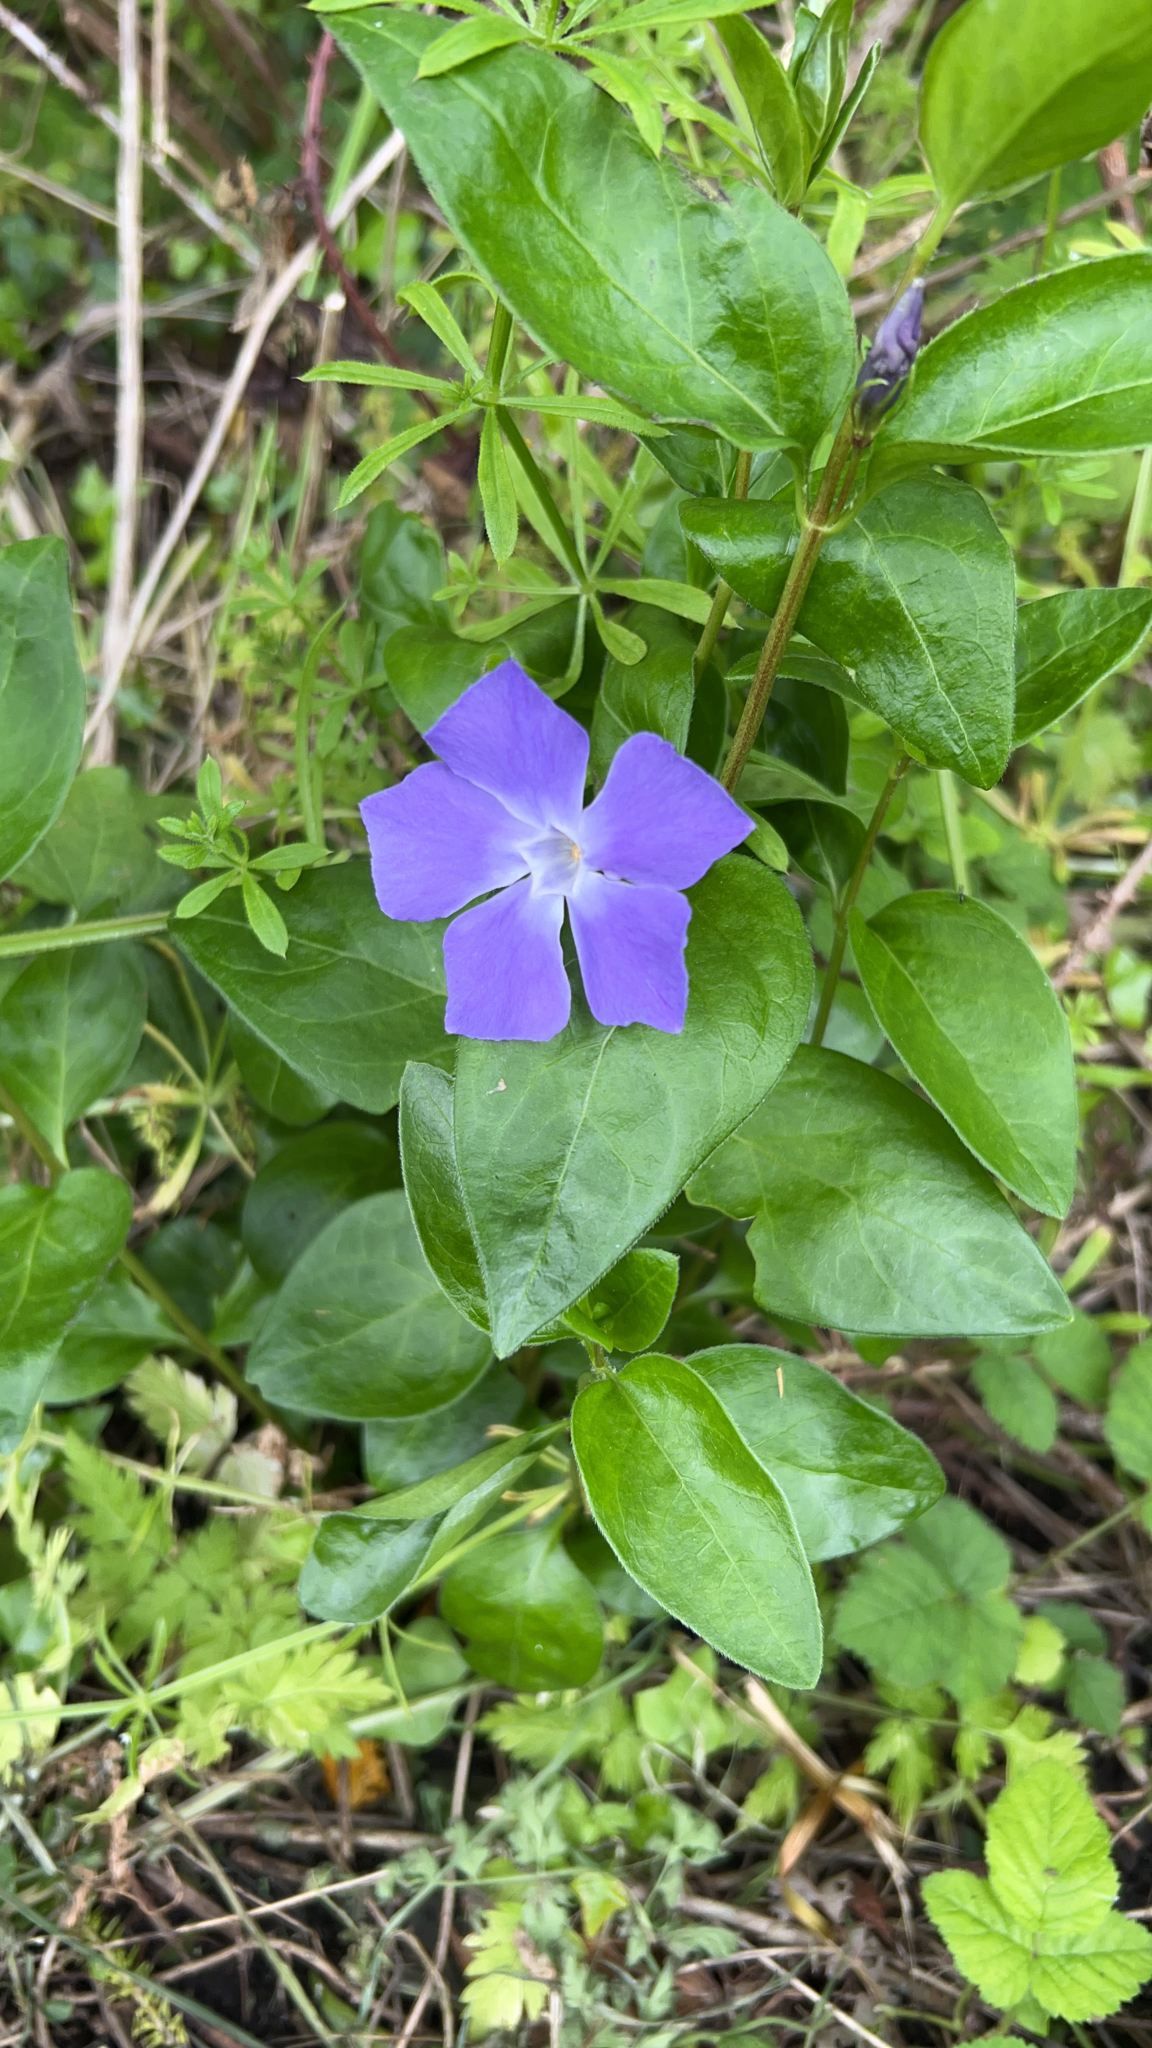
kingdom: Plantae
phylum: Tracheophyta
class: Magnoliopsida
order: Gentianales
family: Apocynaceae
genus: Vinca
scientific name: Vinca major
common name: Greater periwinkle
